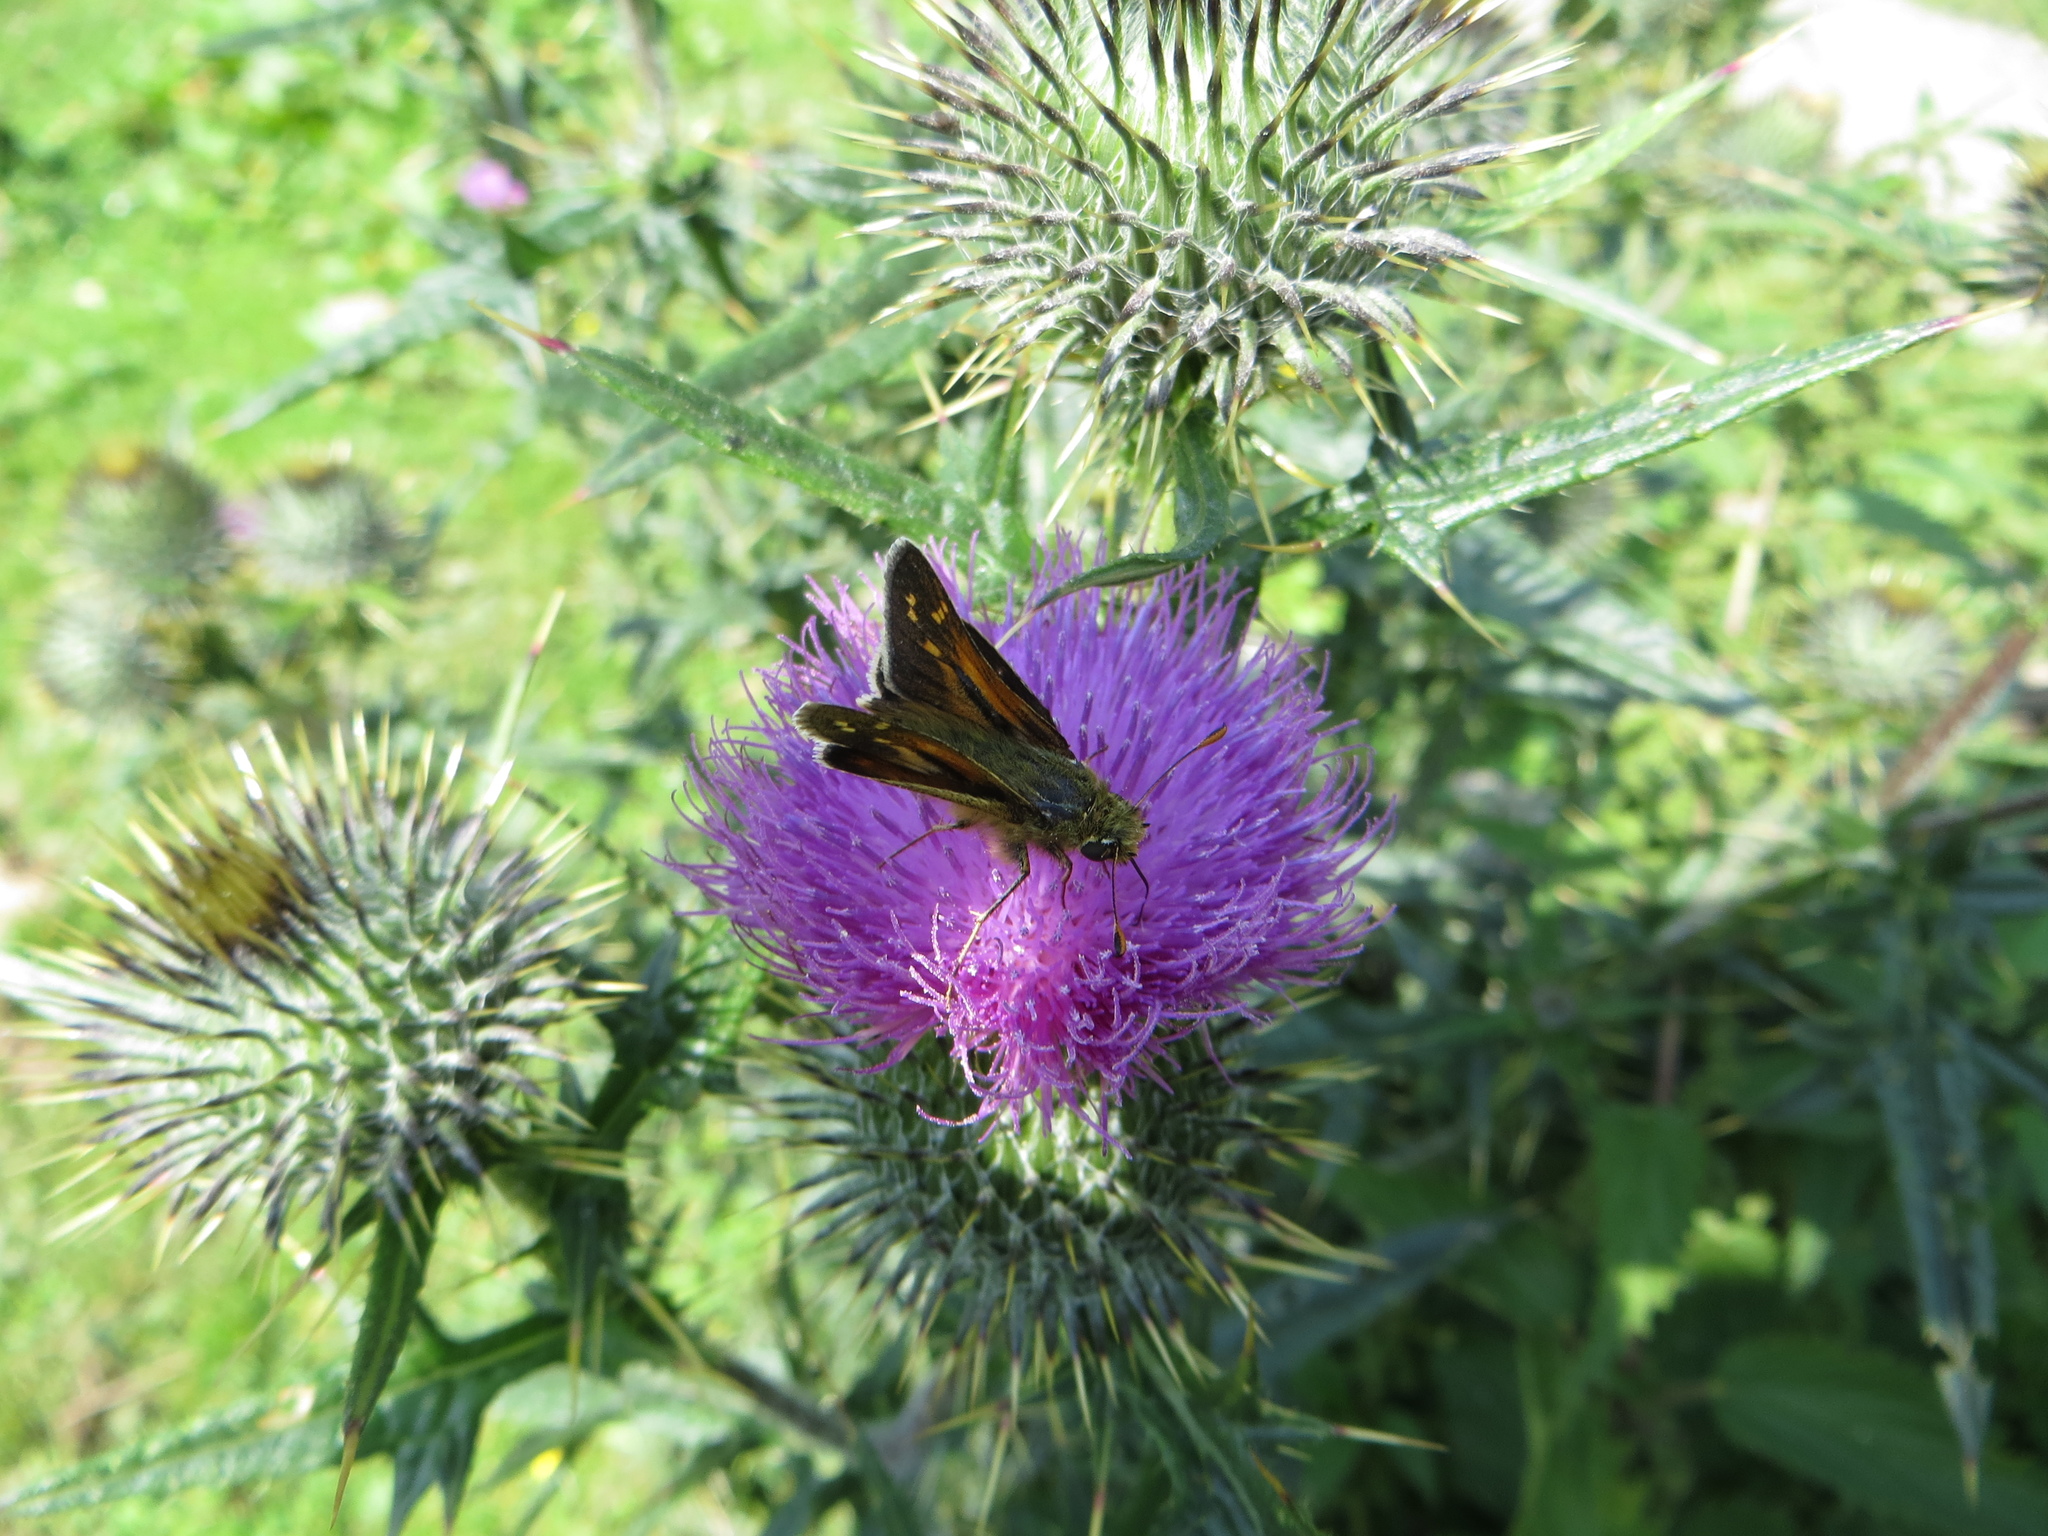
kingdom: Animalia
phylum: Arthropoda
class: Insecta
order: Lepidoptera
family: Hesperiidae
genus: Hesperia
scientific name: Hesperia comma
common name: Common branded skipper
